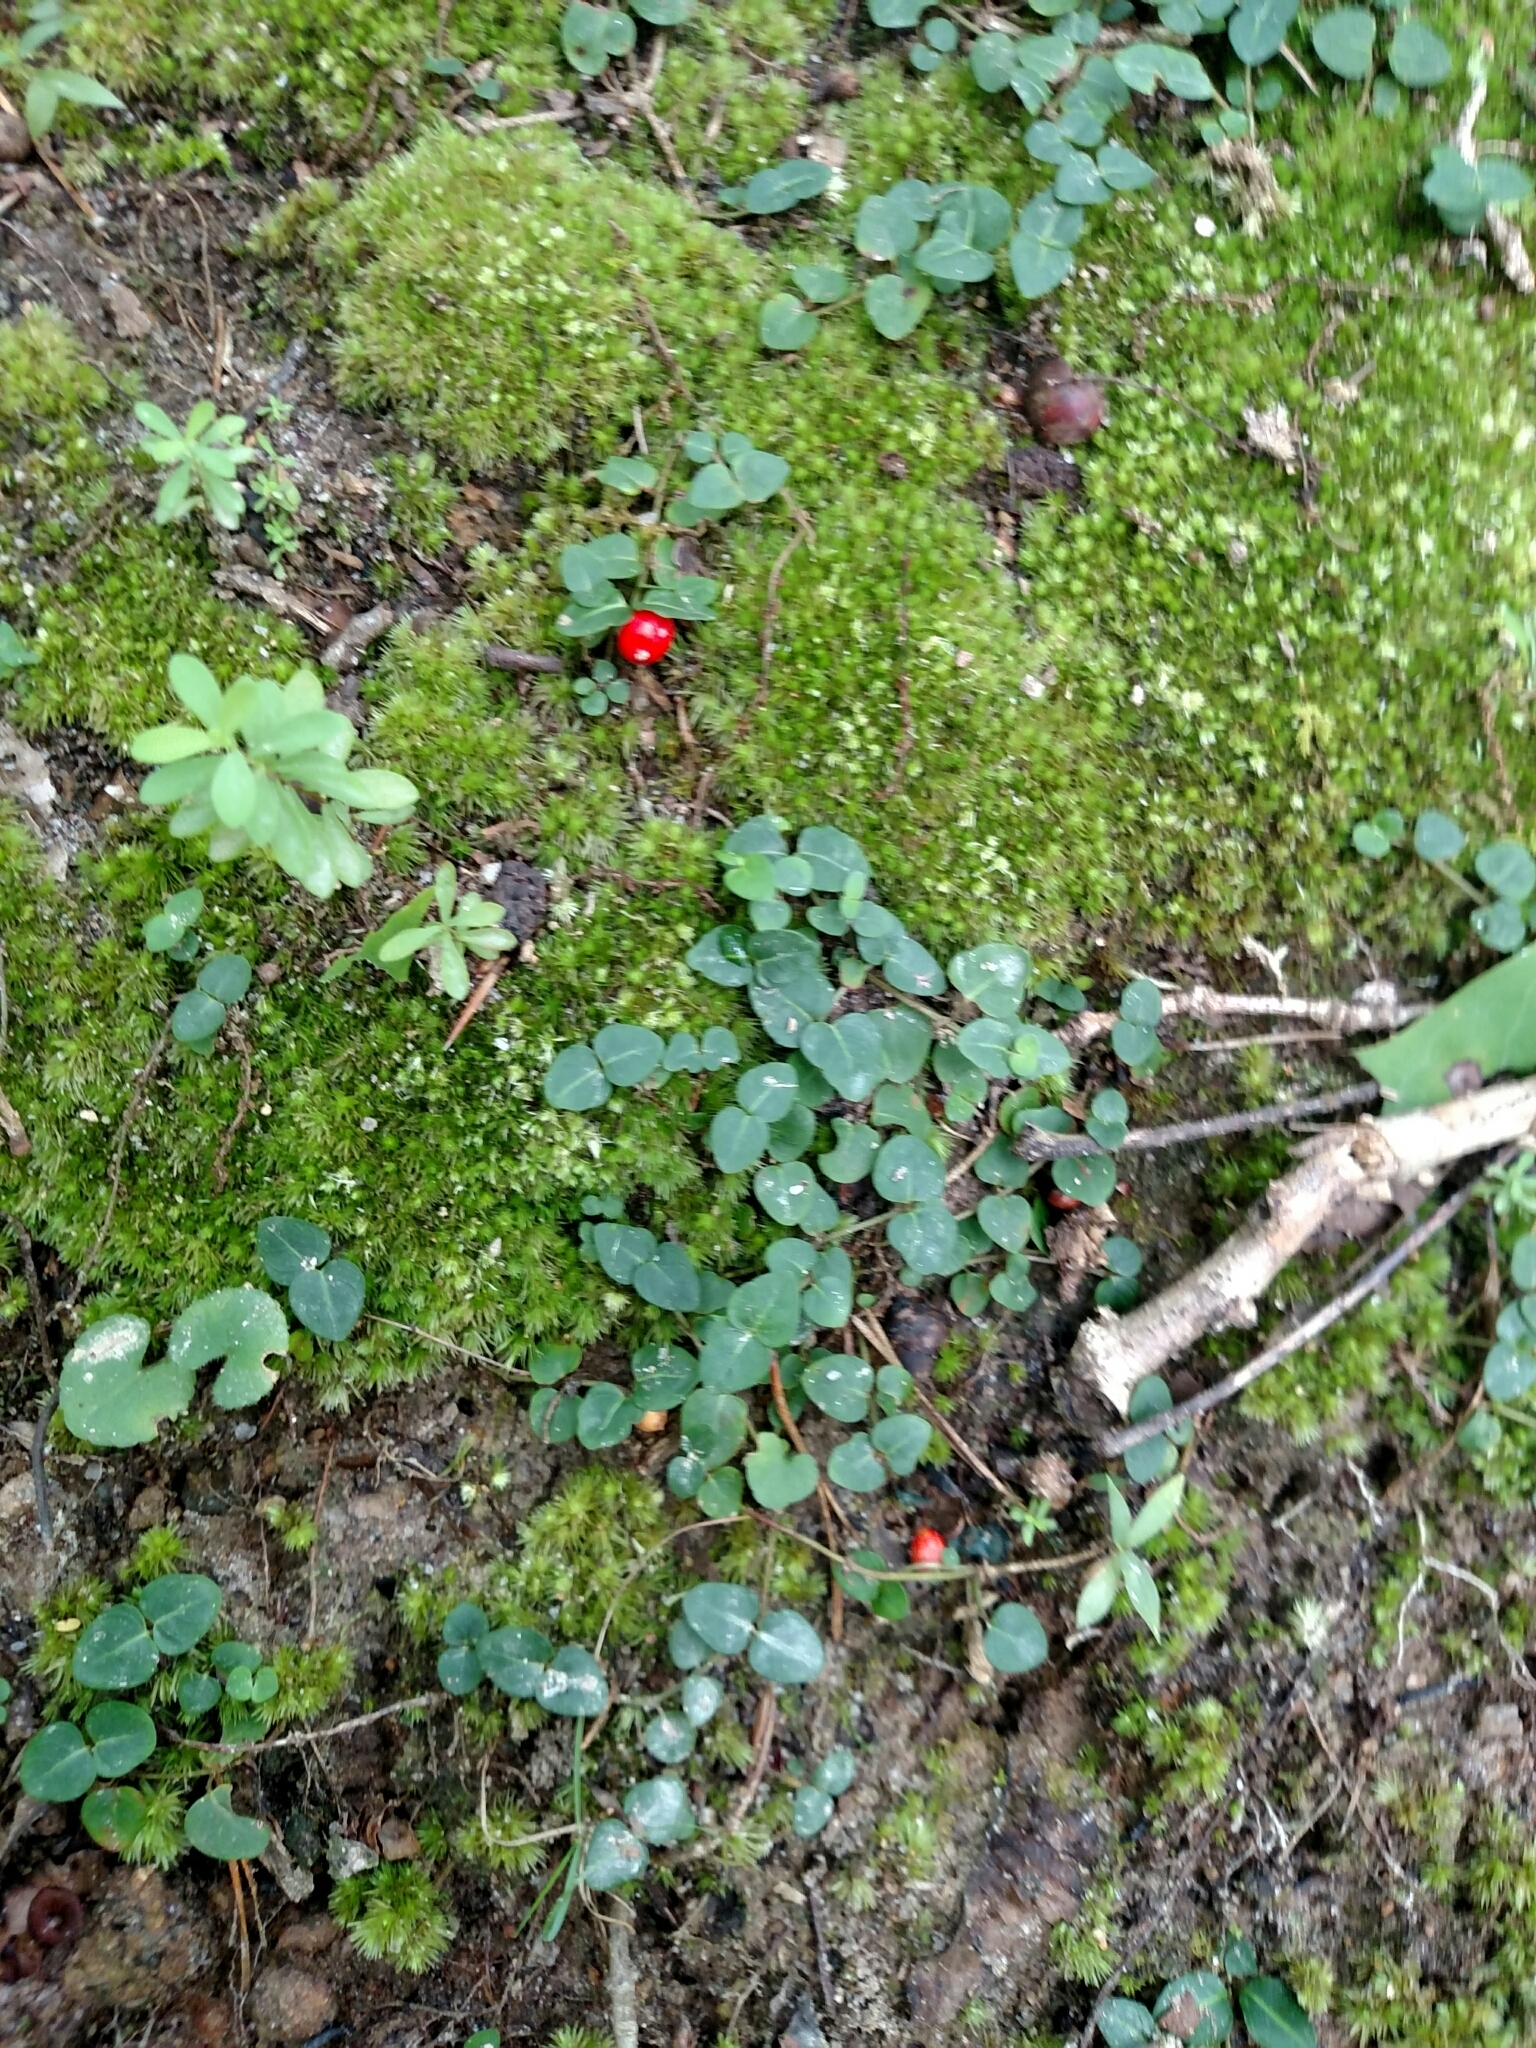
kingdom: Plantae
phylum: Tracheophyta
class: Magnoliopsida
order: Gentianales
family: Rubiaceae
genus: Mitchella
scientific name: Mitchella repens
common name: Partridge-berry
